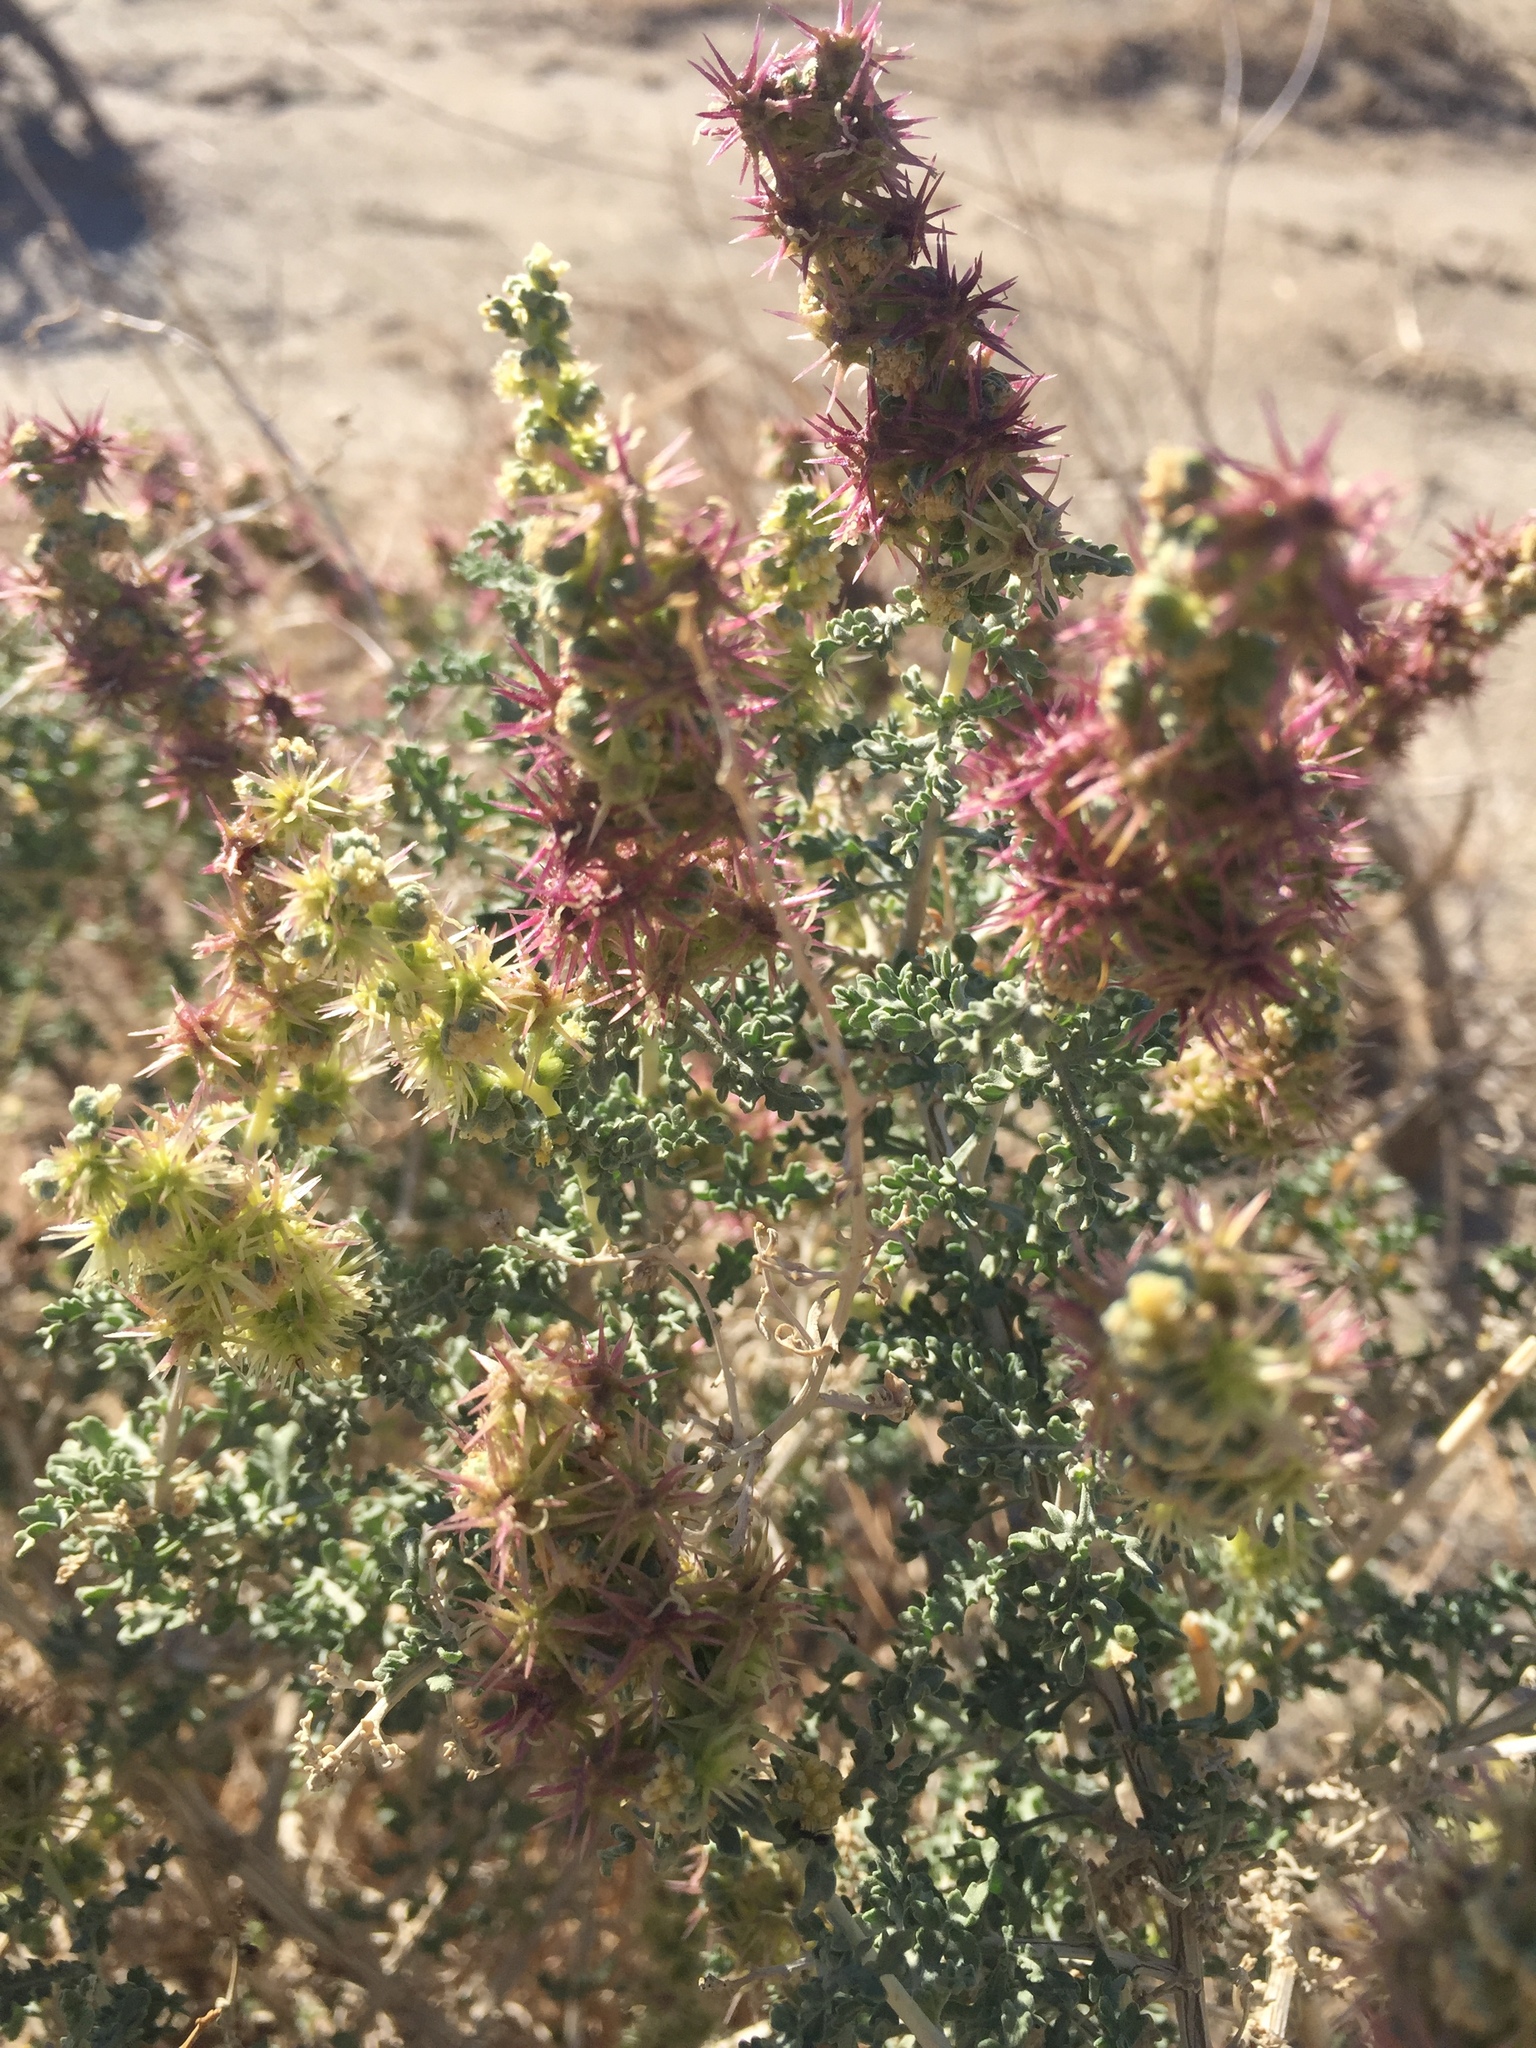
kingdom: Plantae
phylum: Tracheophyta
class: Magnoliopsida
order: Asterales
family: Asteraceae
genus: Ambrosia
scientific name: Ambrosia dumosa
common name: Bur-sage
